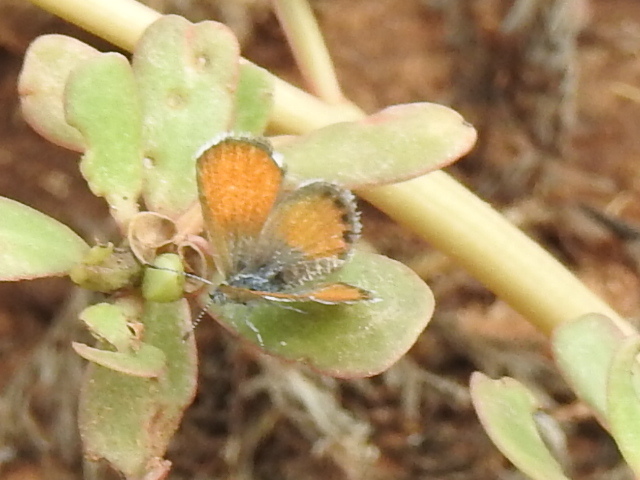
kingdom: Animalia
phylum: Arthropoda
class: Insecta
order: Lepidoptera
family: Lycaenidae
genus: Brephidium
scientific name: Brephidium exilis
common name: Pygmy blue
